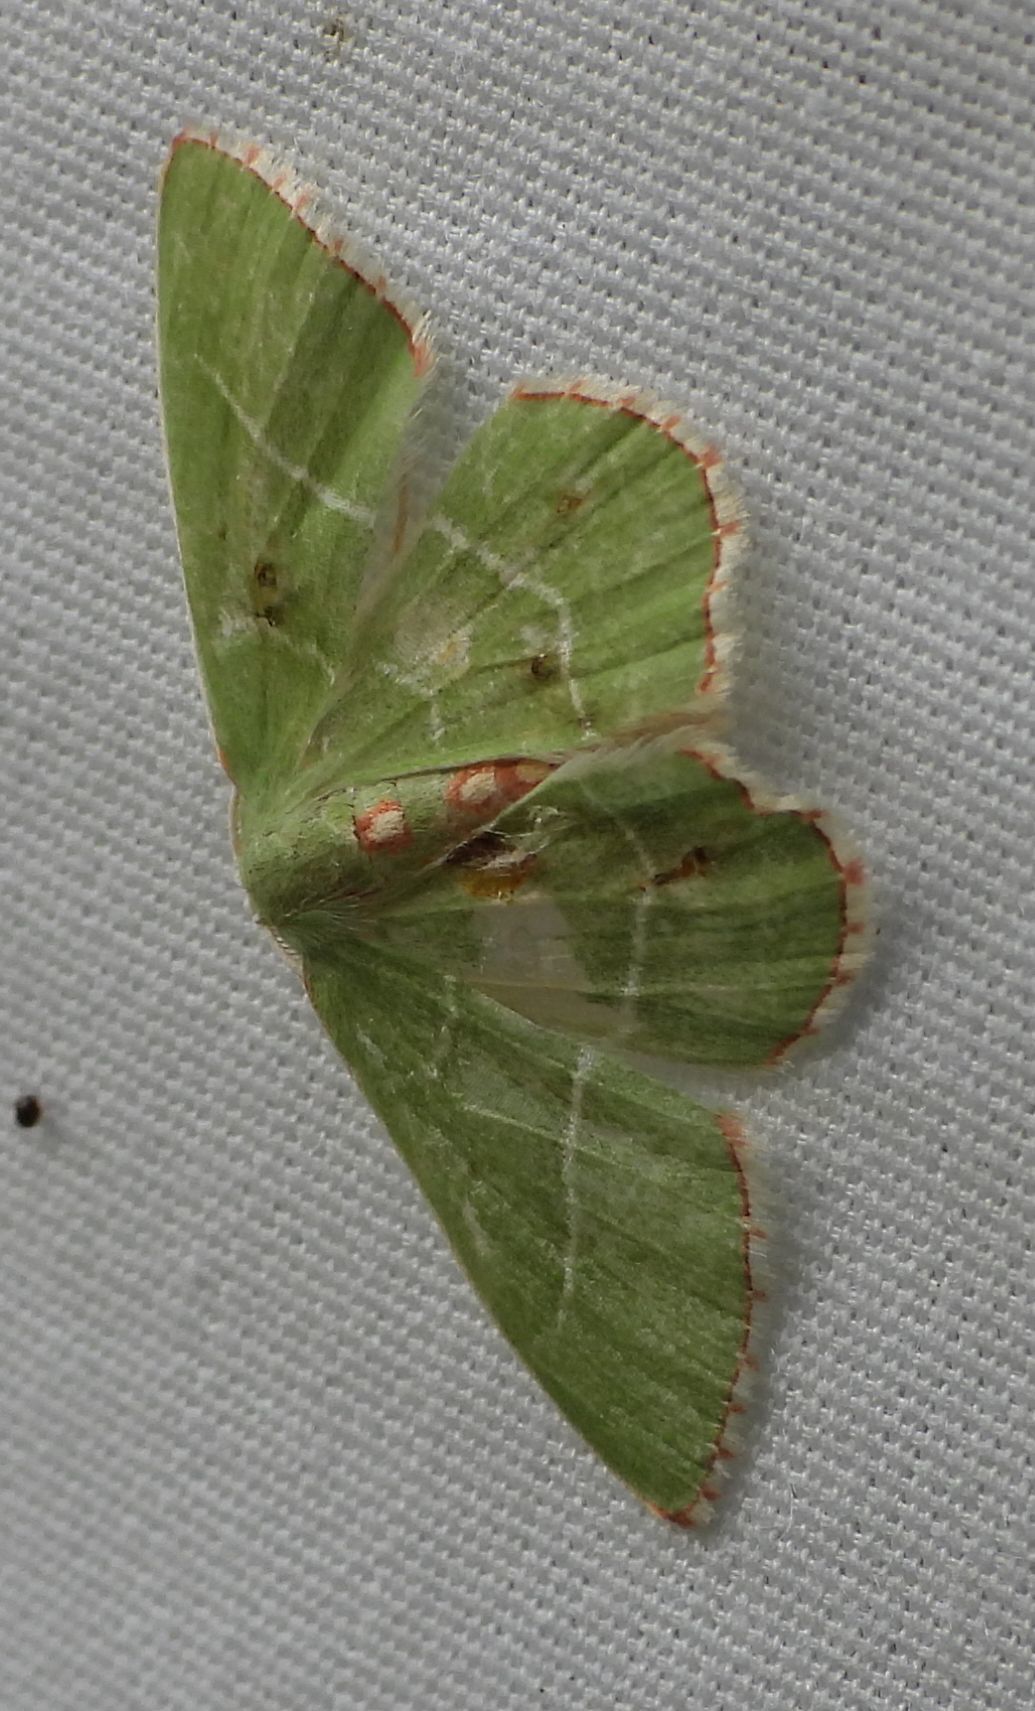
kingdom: Animalia
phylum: Arthropoda
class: Insecta
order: Lepidoptera
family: Geometridae
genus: Nemoria
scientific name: Nemoria bistriaria
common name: Red-fringed emerald
